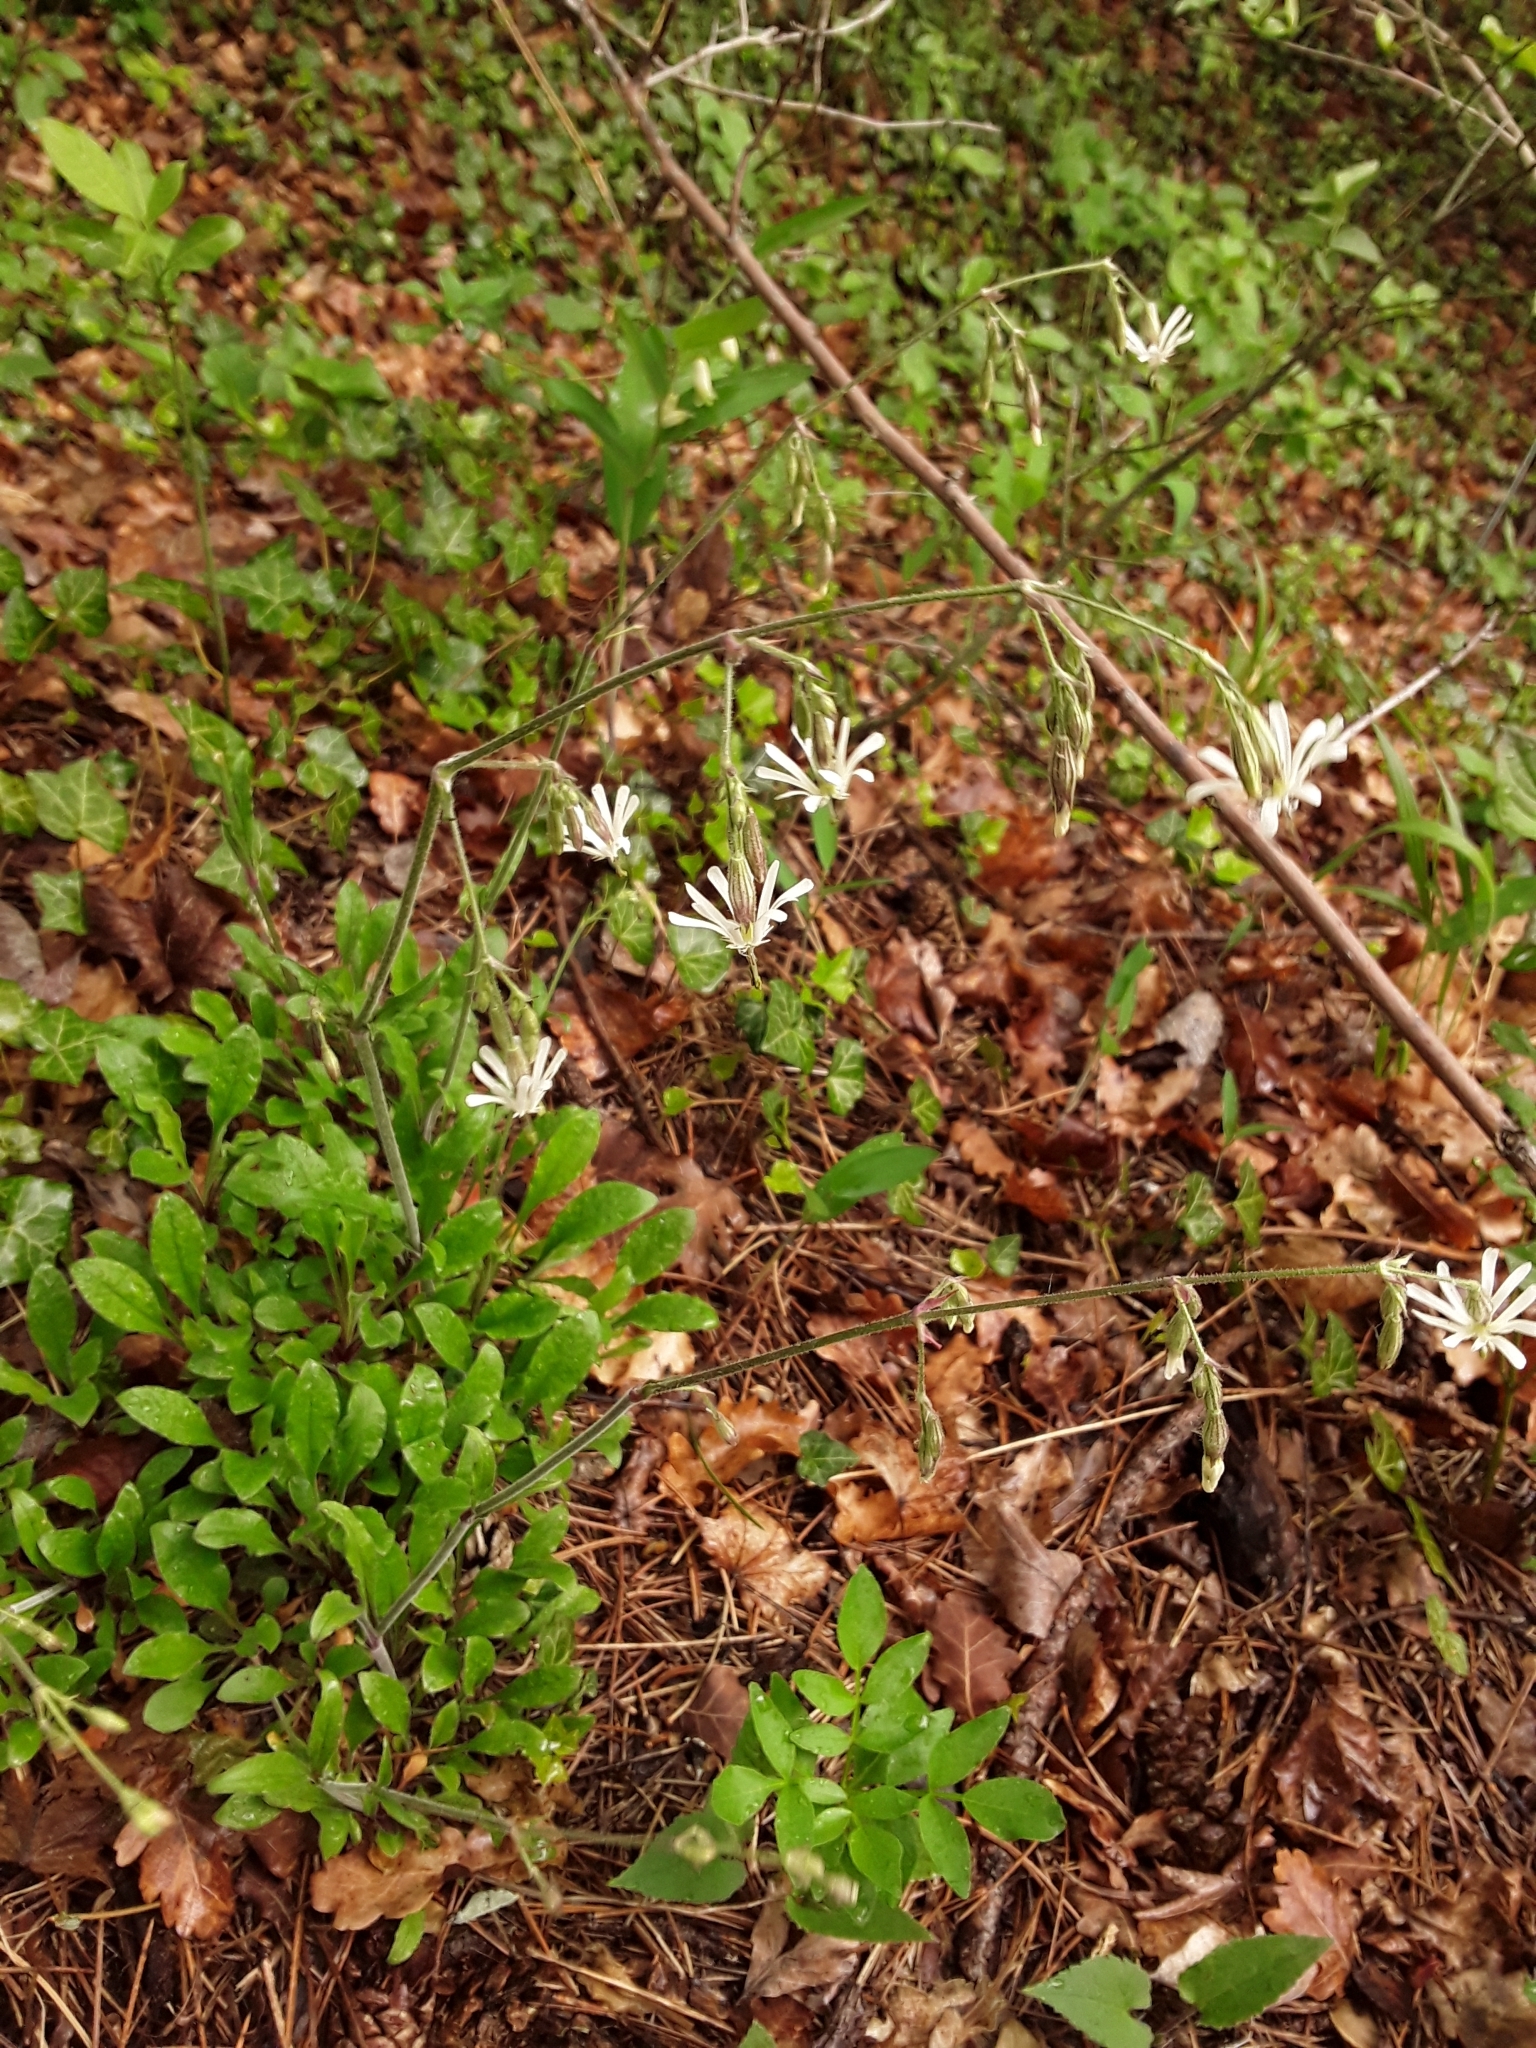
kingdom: Plantae
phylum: Tracheophyta
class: Magnoliopsida
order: Caryophyllales
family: Caryophyllaceae
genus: Silene
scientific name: Silene nutans
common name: Nottingham catchfly
